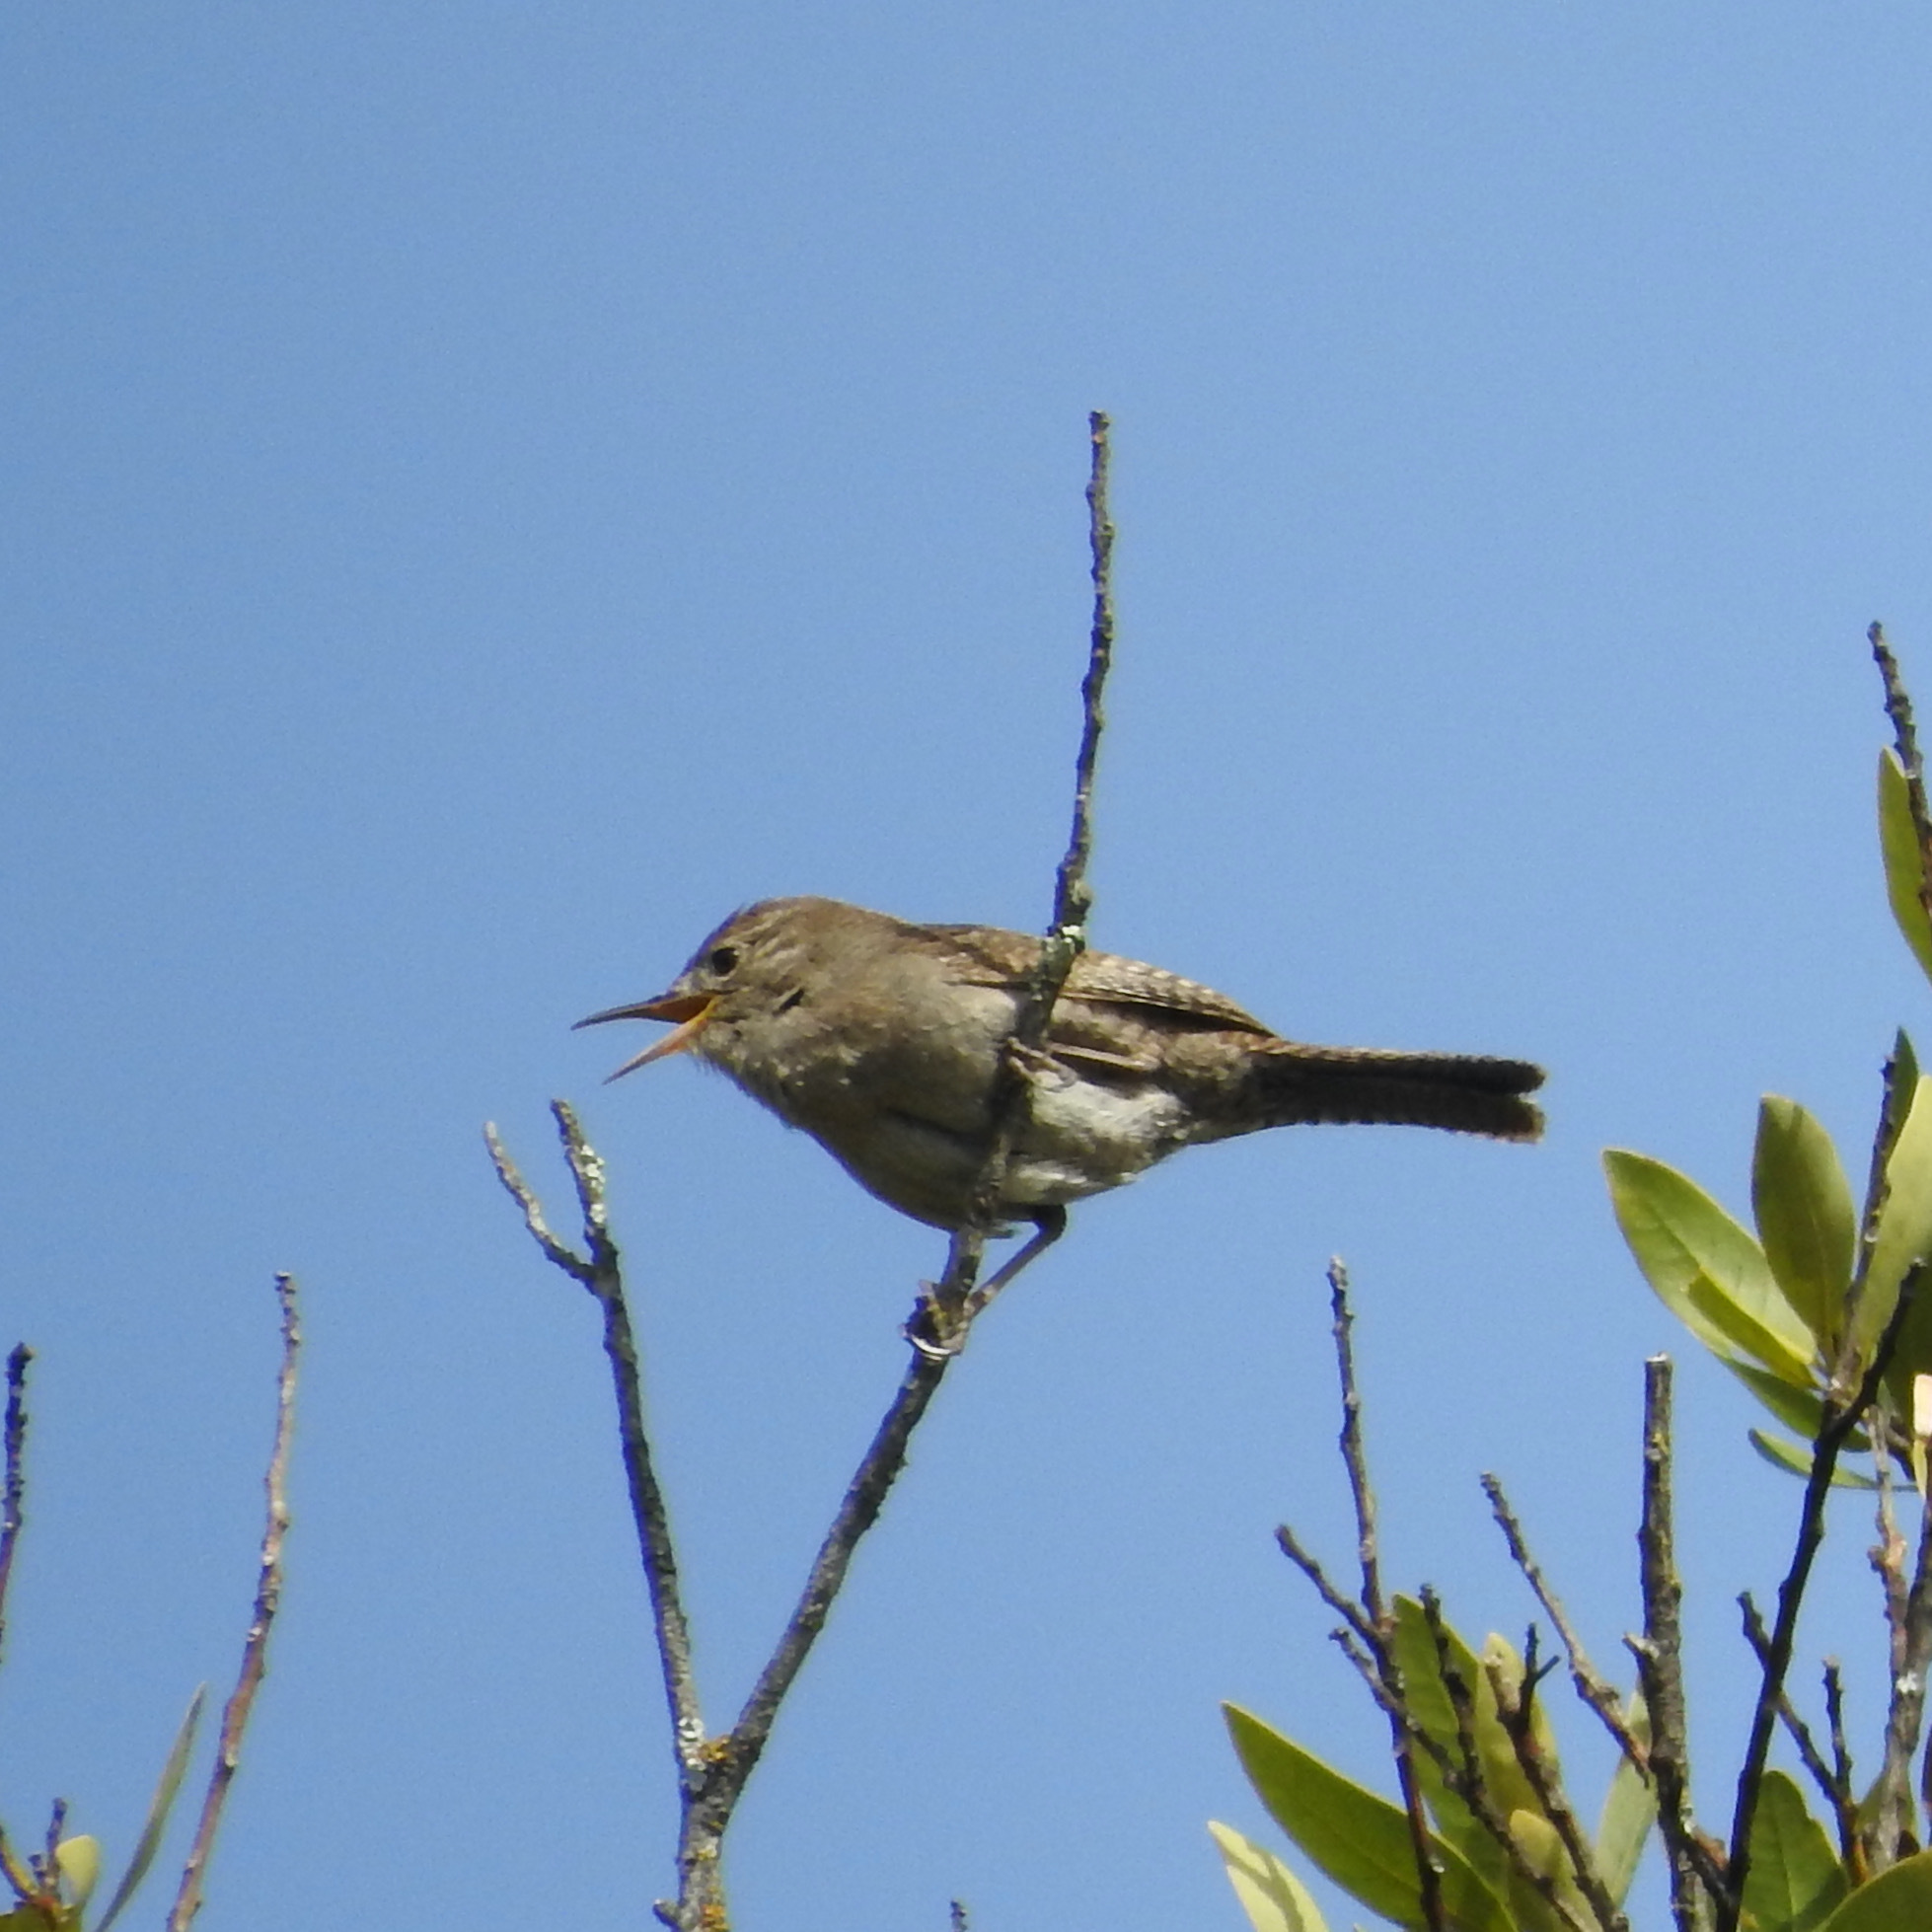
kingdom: Animalia
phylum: Chordata
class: Aves
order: Passeriformes
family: Troglodytidae
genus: Troglodytes
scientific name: Troglodytes aedon
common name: House wren
